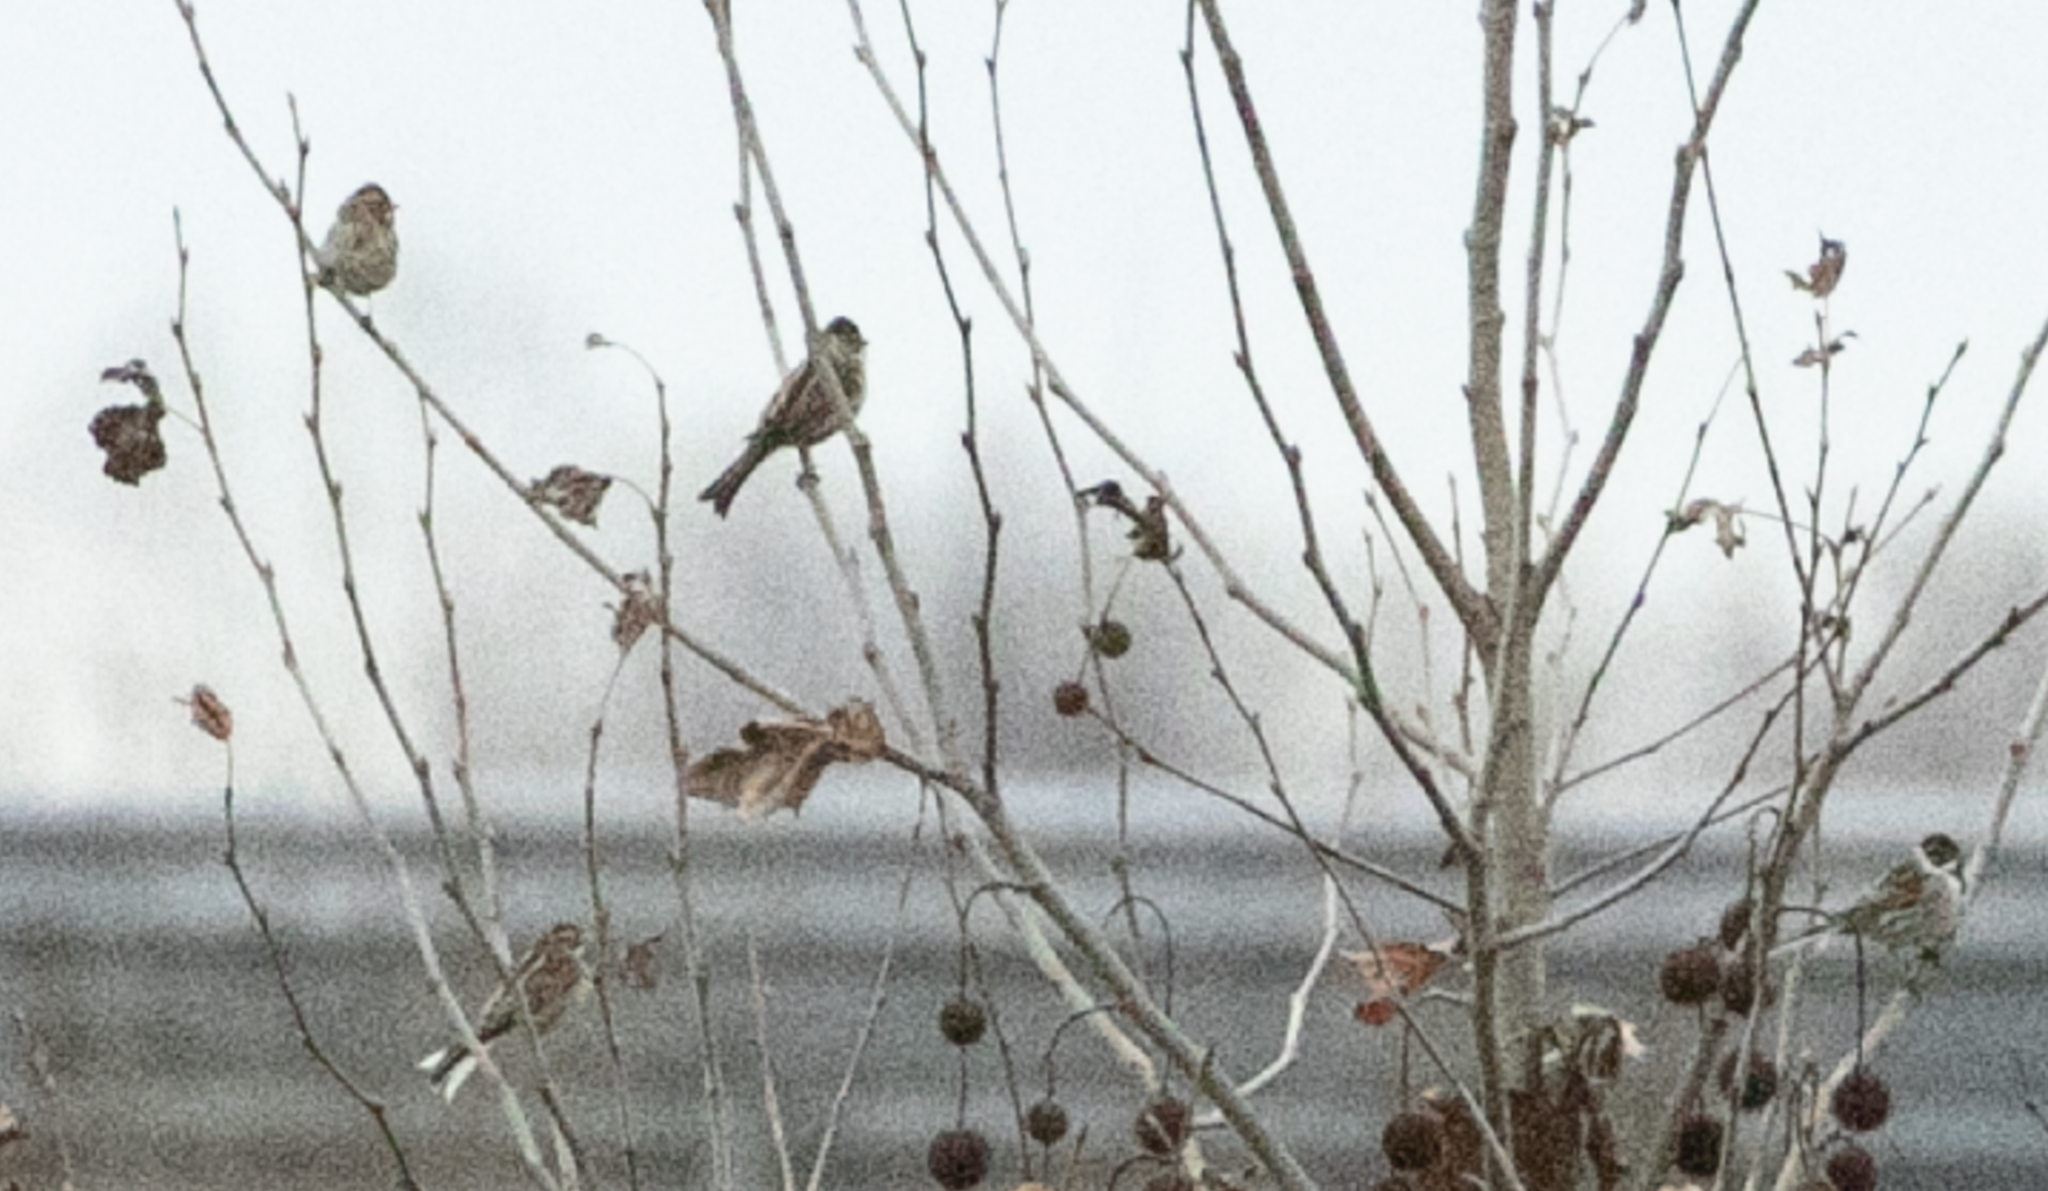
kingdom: Animalia
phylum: Chordata
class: Aves
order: Passeriformes
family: Emberizidae
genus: Emberiza
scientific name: Emberiza schoeniclus
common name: Reed bunting
